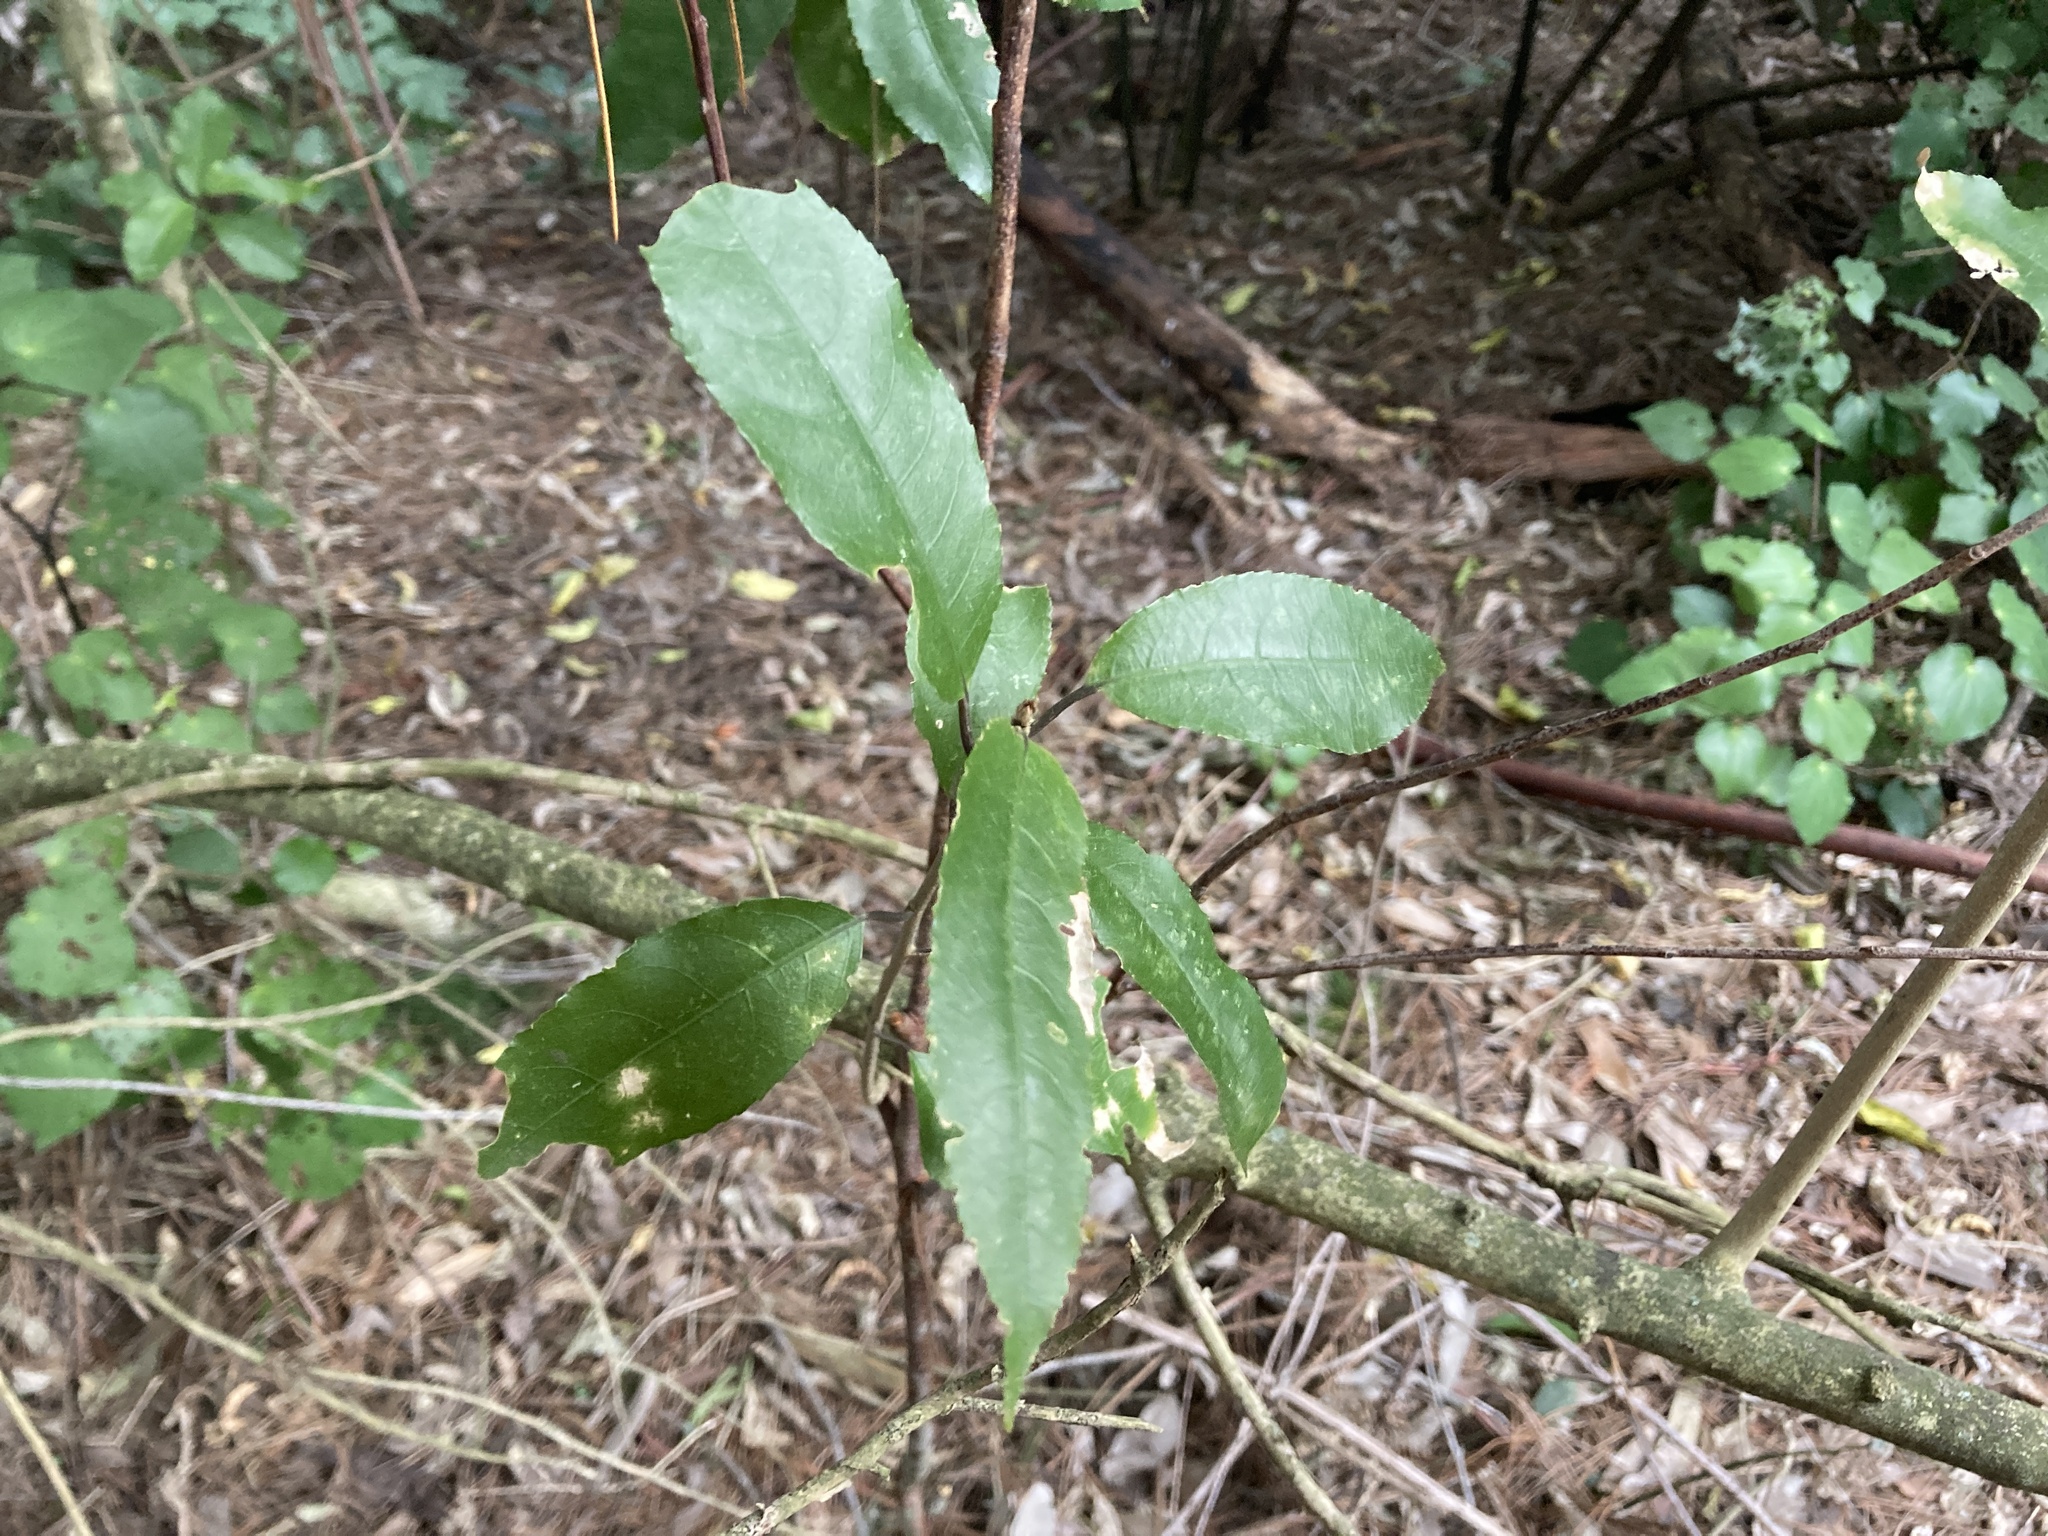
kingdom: Plantae
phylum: Tracheophyta
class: Magnoliopsida
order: Malpighiales
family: Violaceae
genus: Melicytus
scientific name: Melicytus ramiflorus
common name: Mahoe
